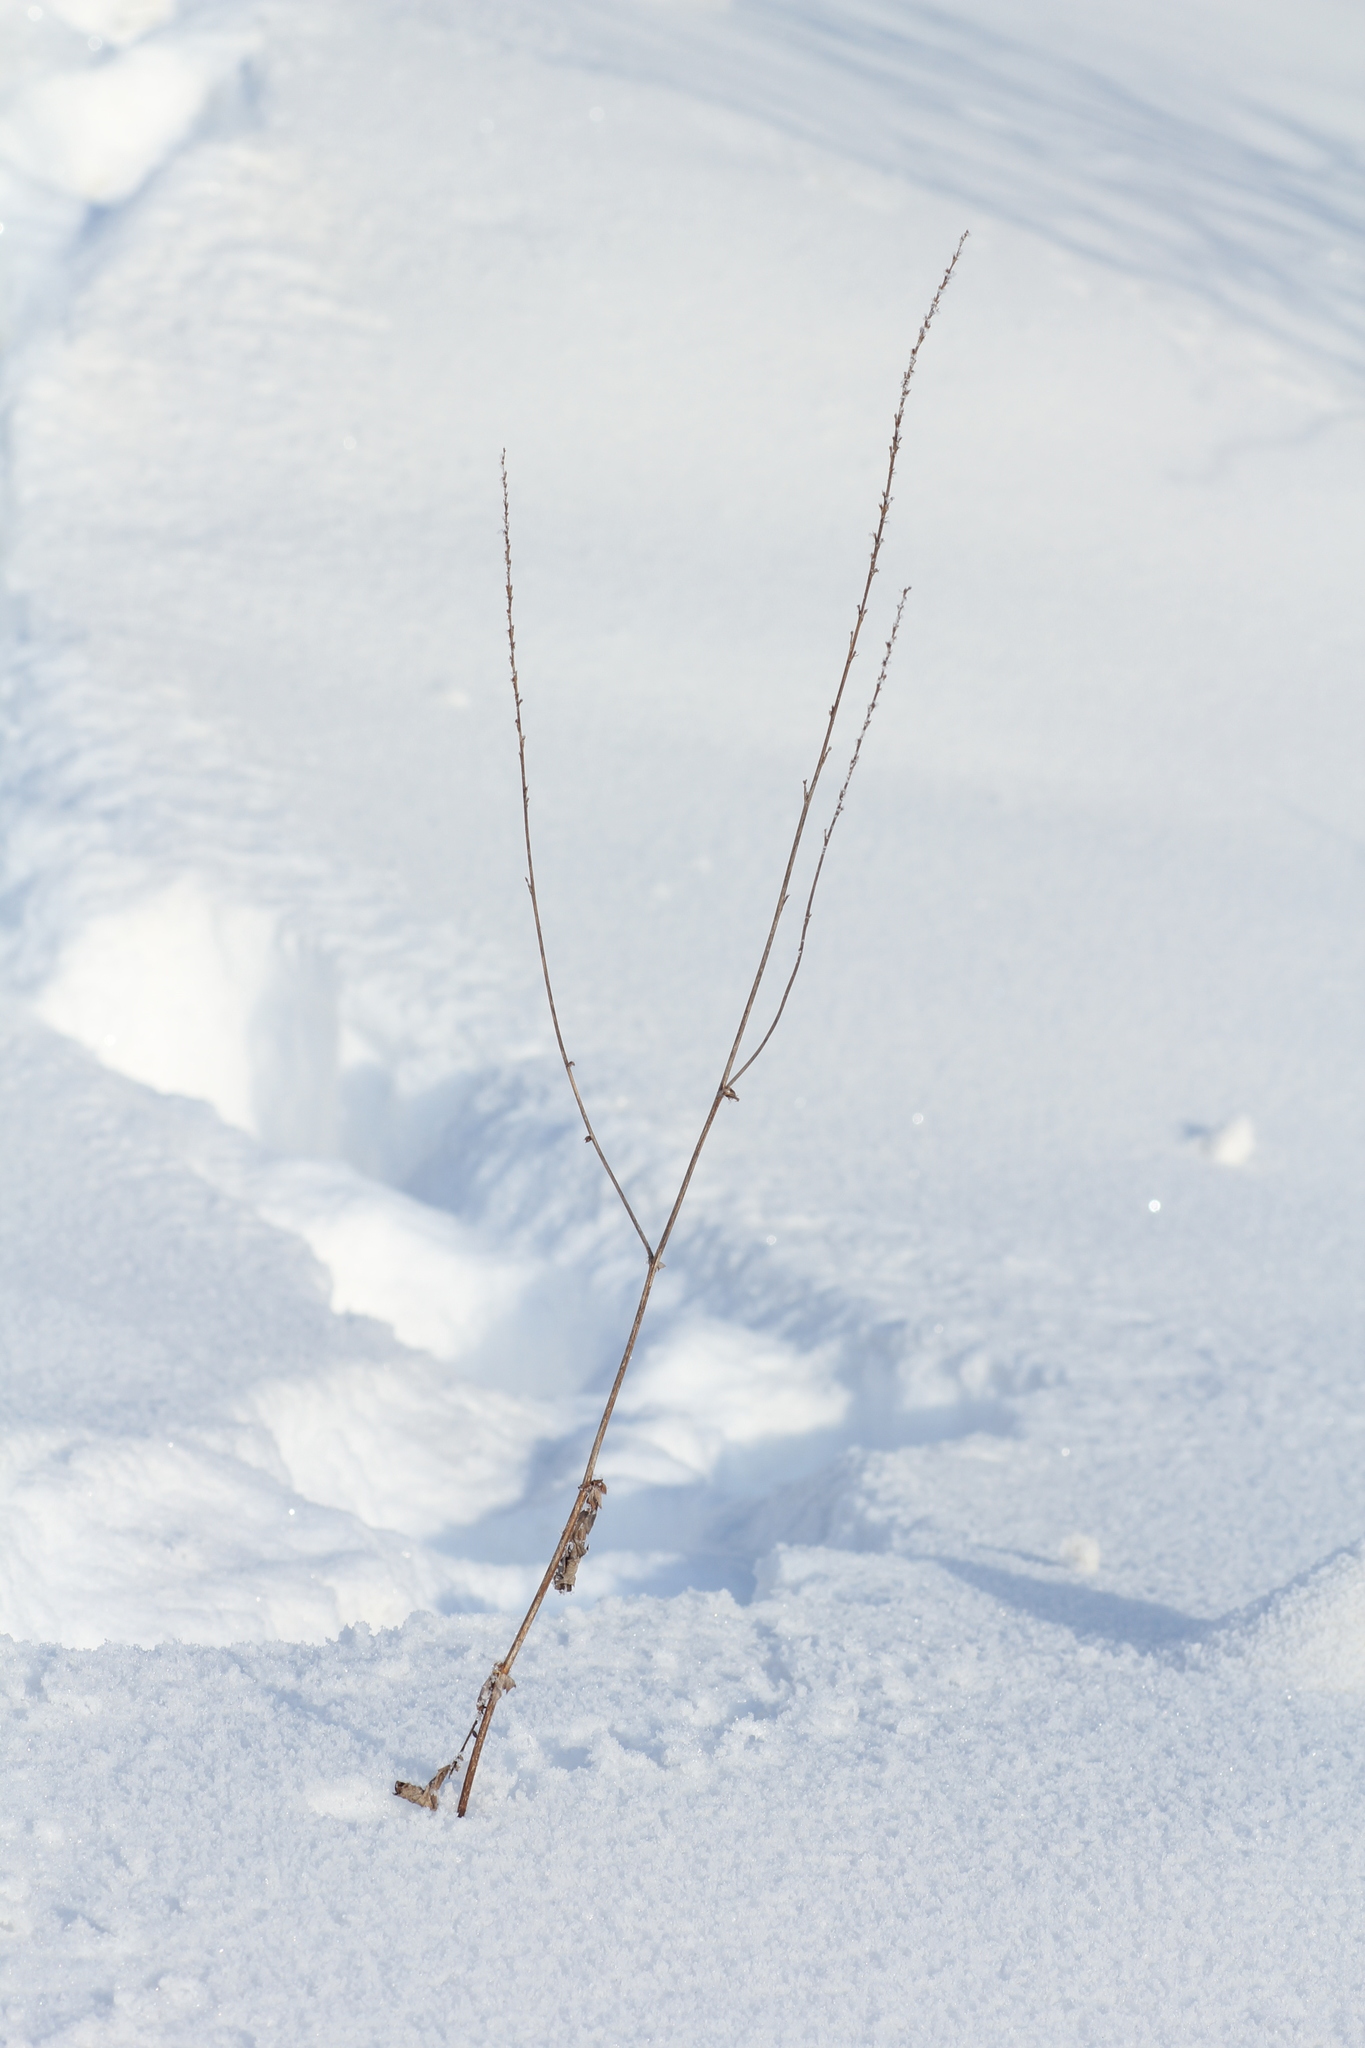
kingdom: Plantae
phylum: Tracheophyta
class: Magnoliopsida
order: Rosales
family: Rosaceae
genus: Agrimonia
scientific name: Agrimonia pilosa
